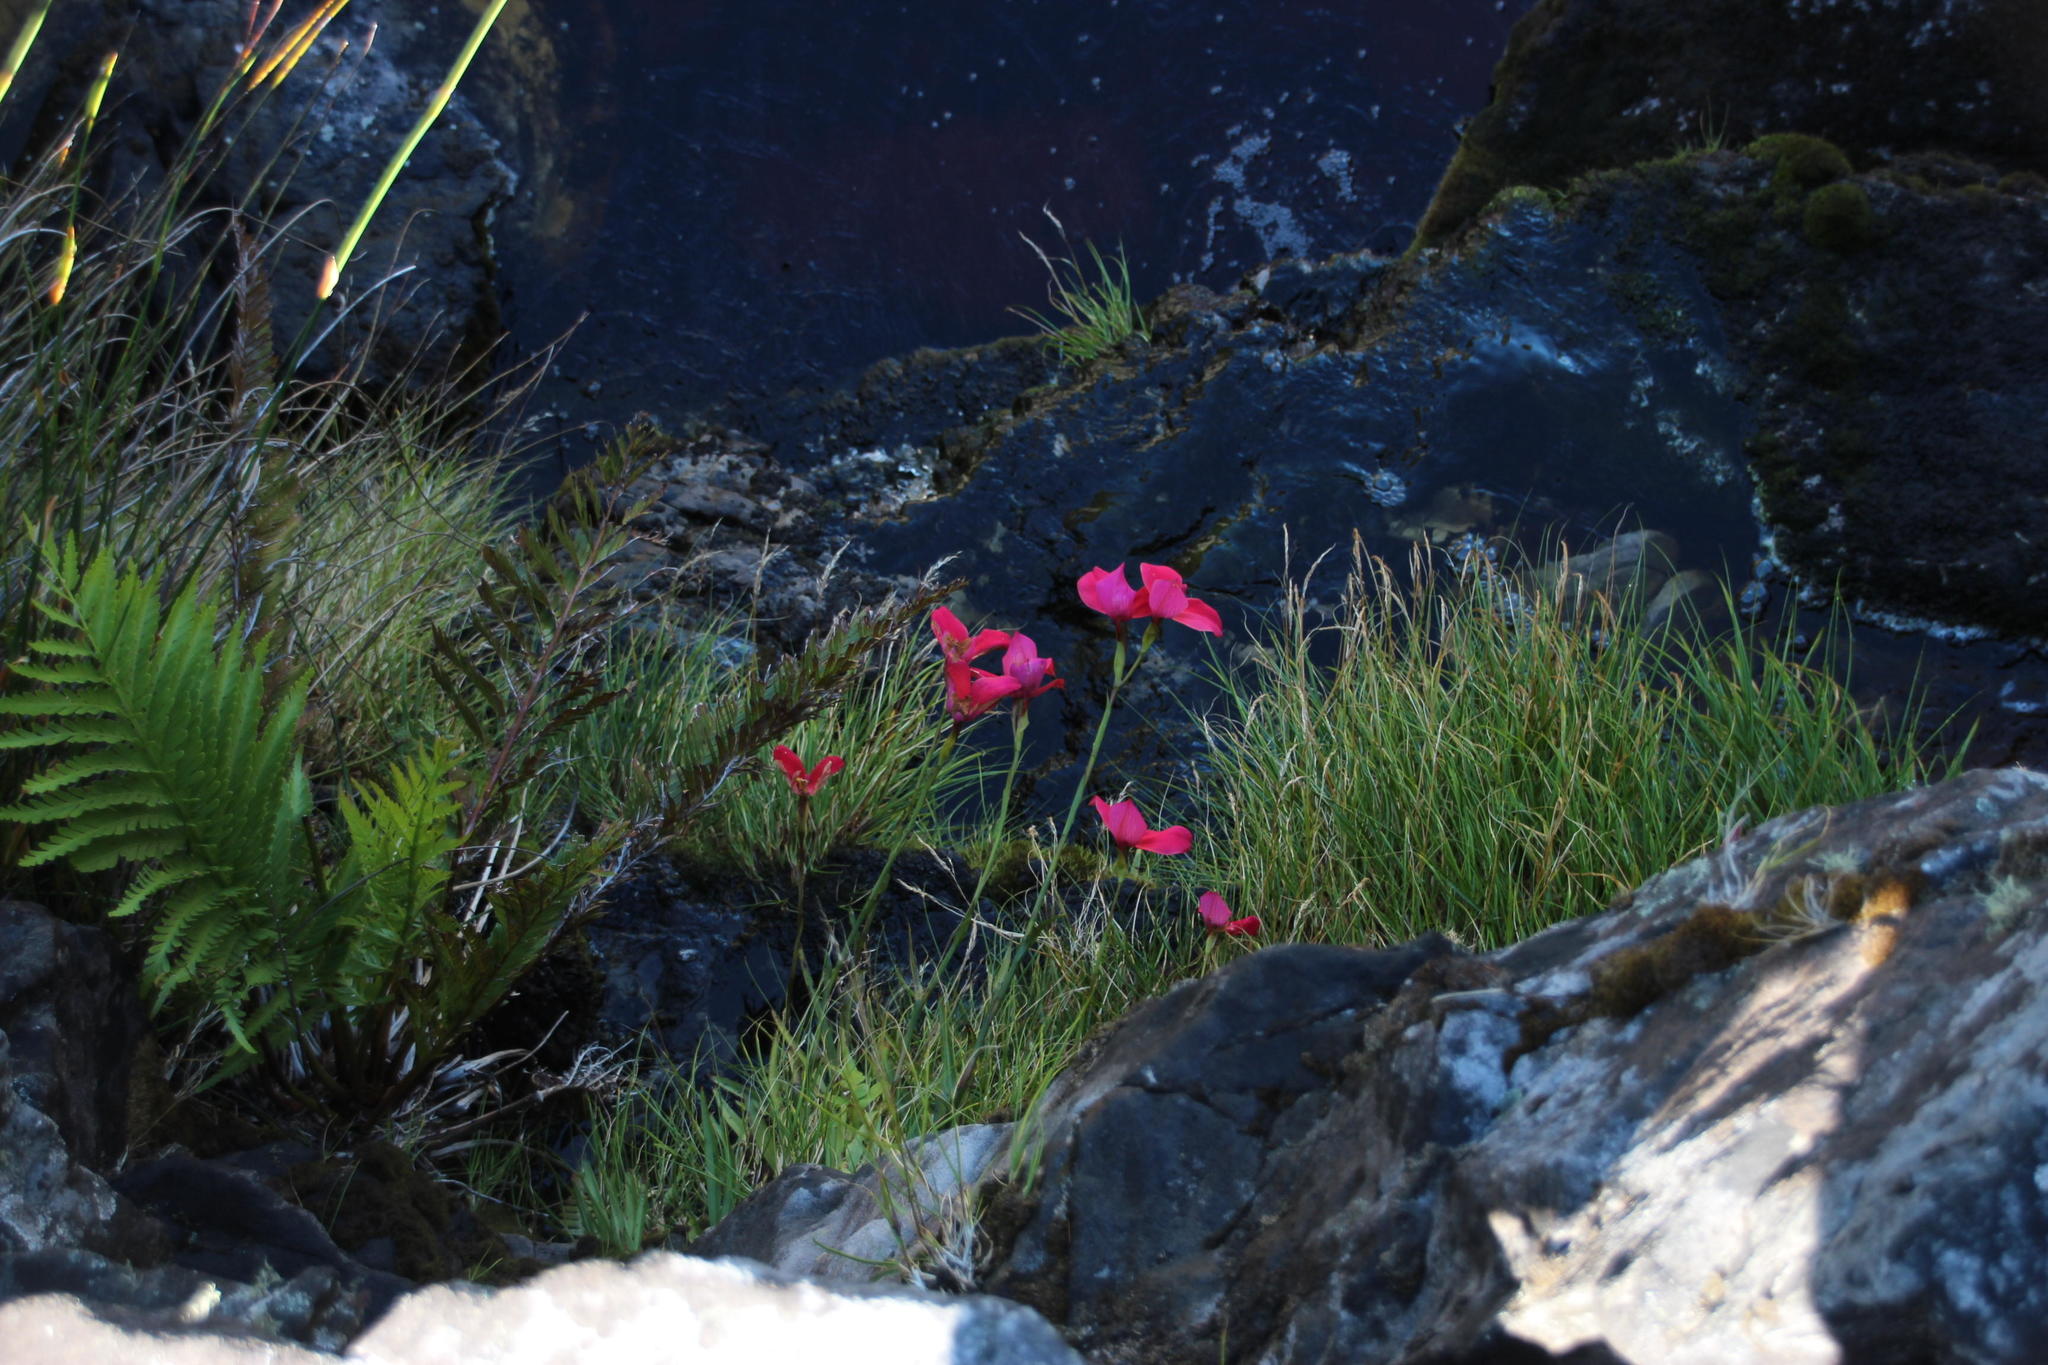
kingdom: Plantae
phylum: Tracheophyta
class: Liliopsida
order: Asparagales
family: Orchidaceae
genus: Disa
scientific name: Disa uniflora
